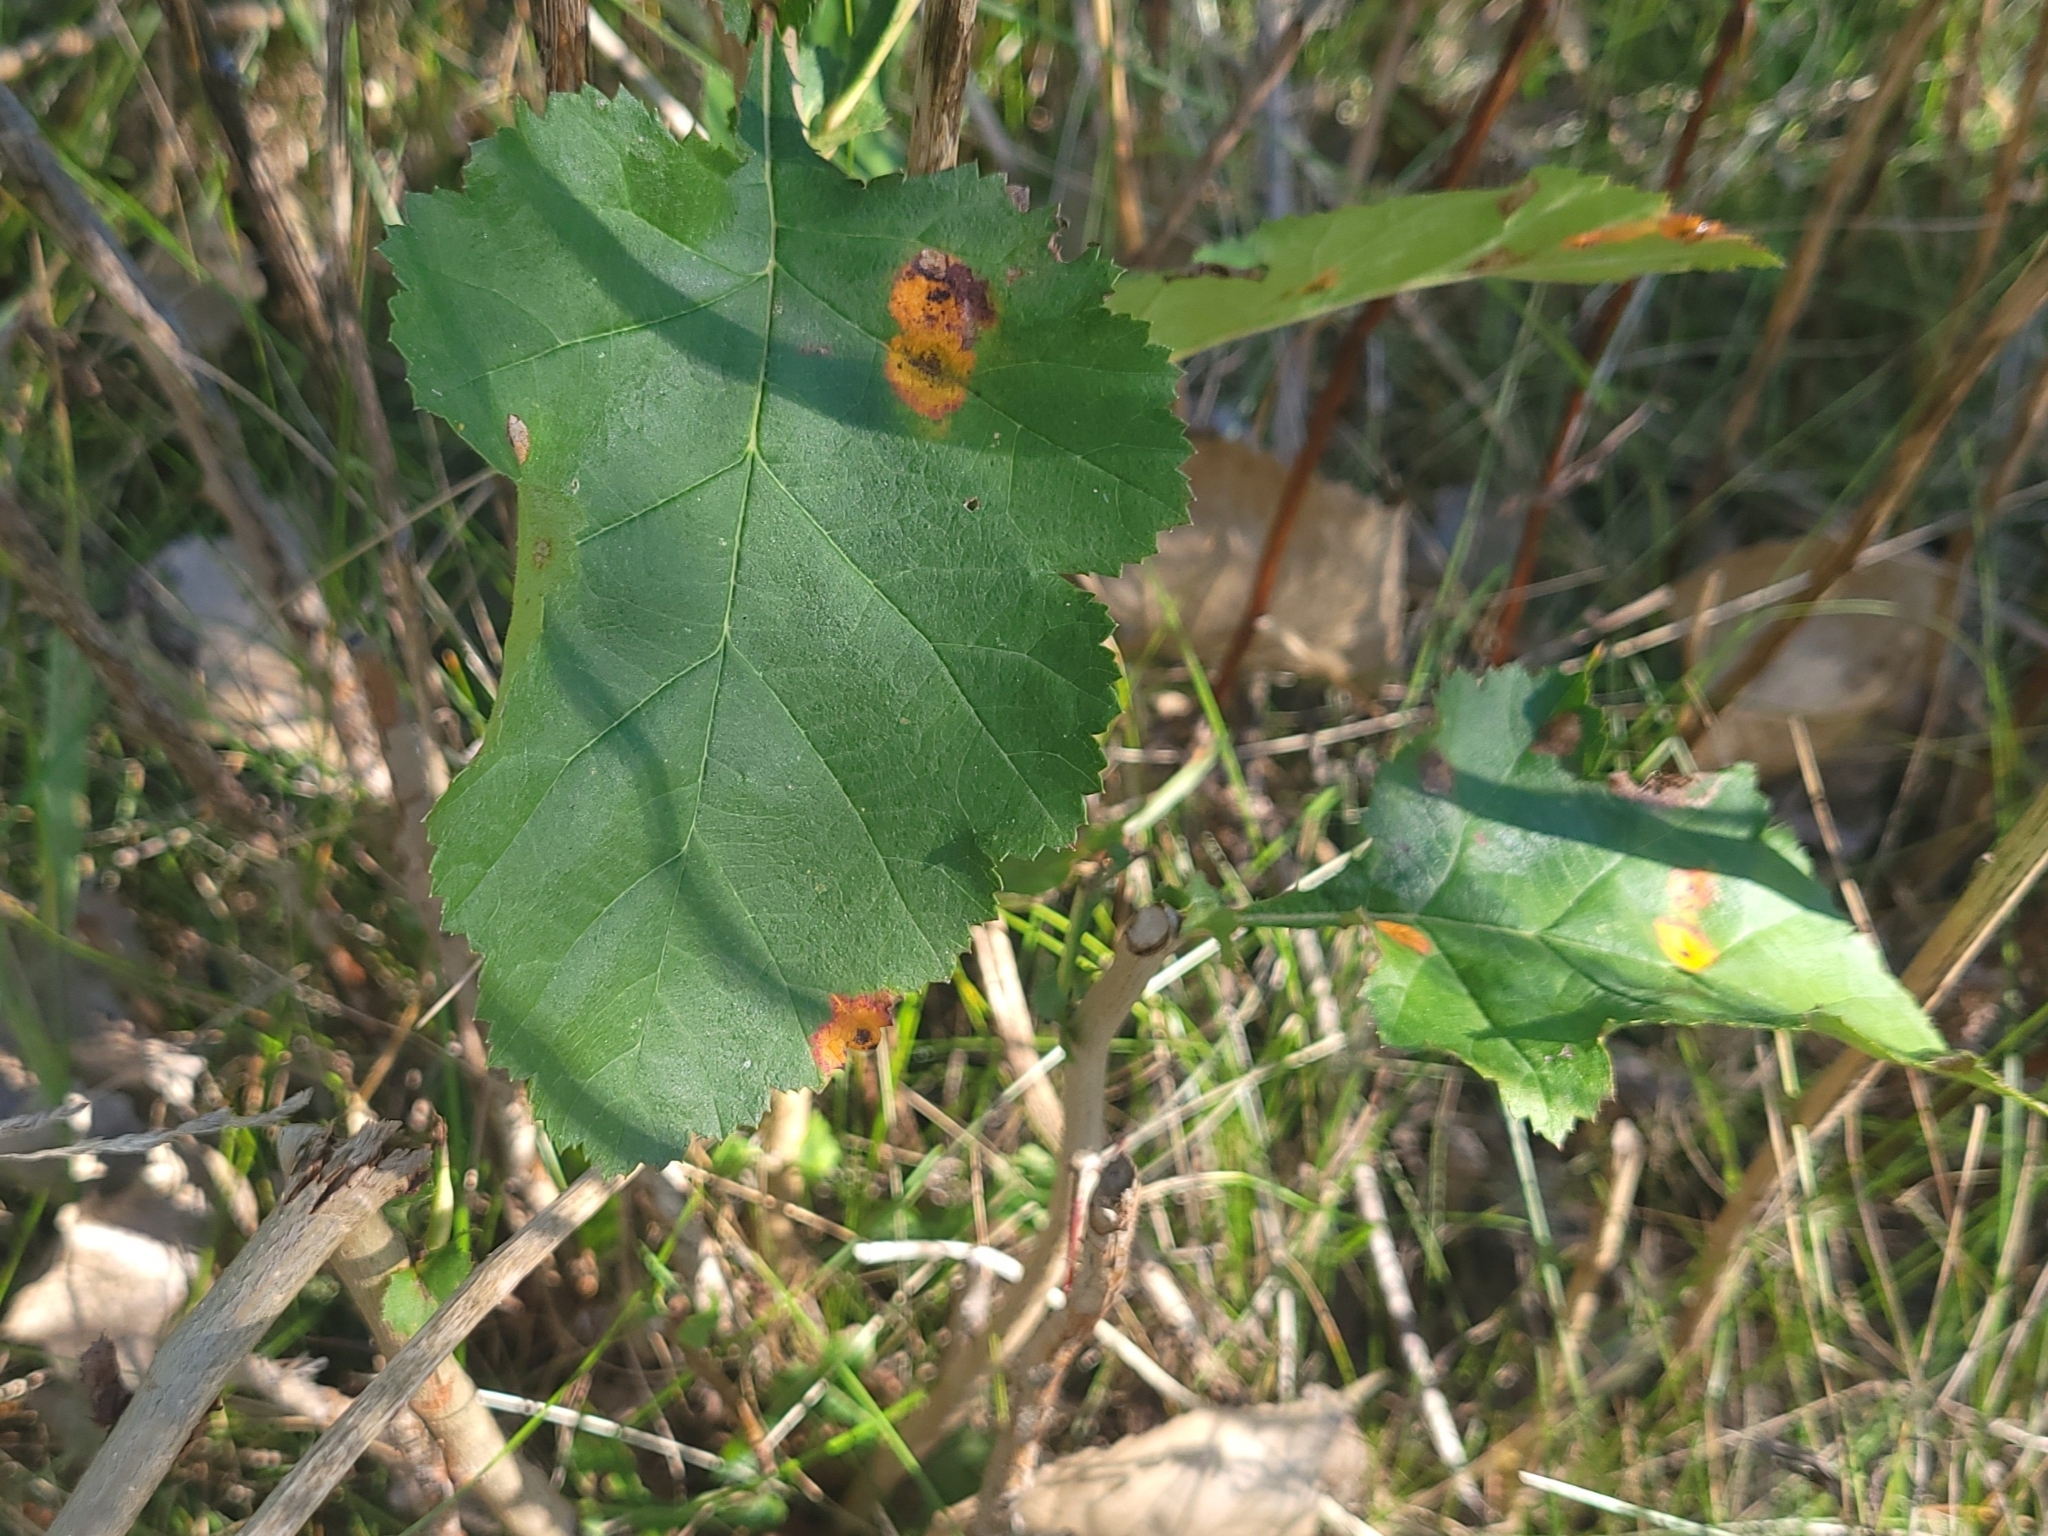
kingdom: Plantae
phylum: Tracheophyta
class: Magnoliopsida
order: Rosales
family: Rosaceae
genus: Crataegus
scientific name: Crataegus
